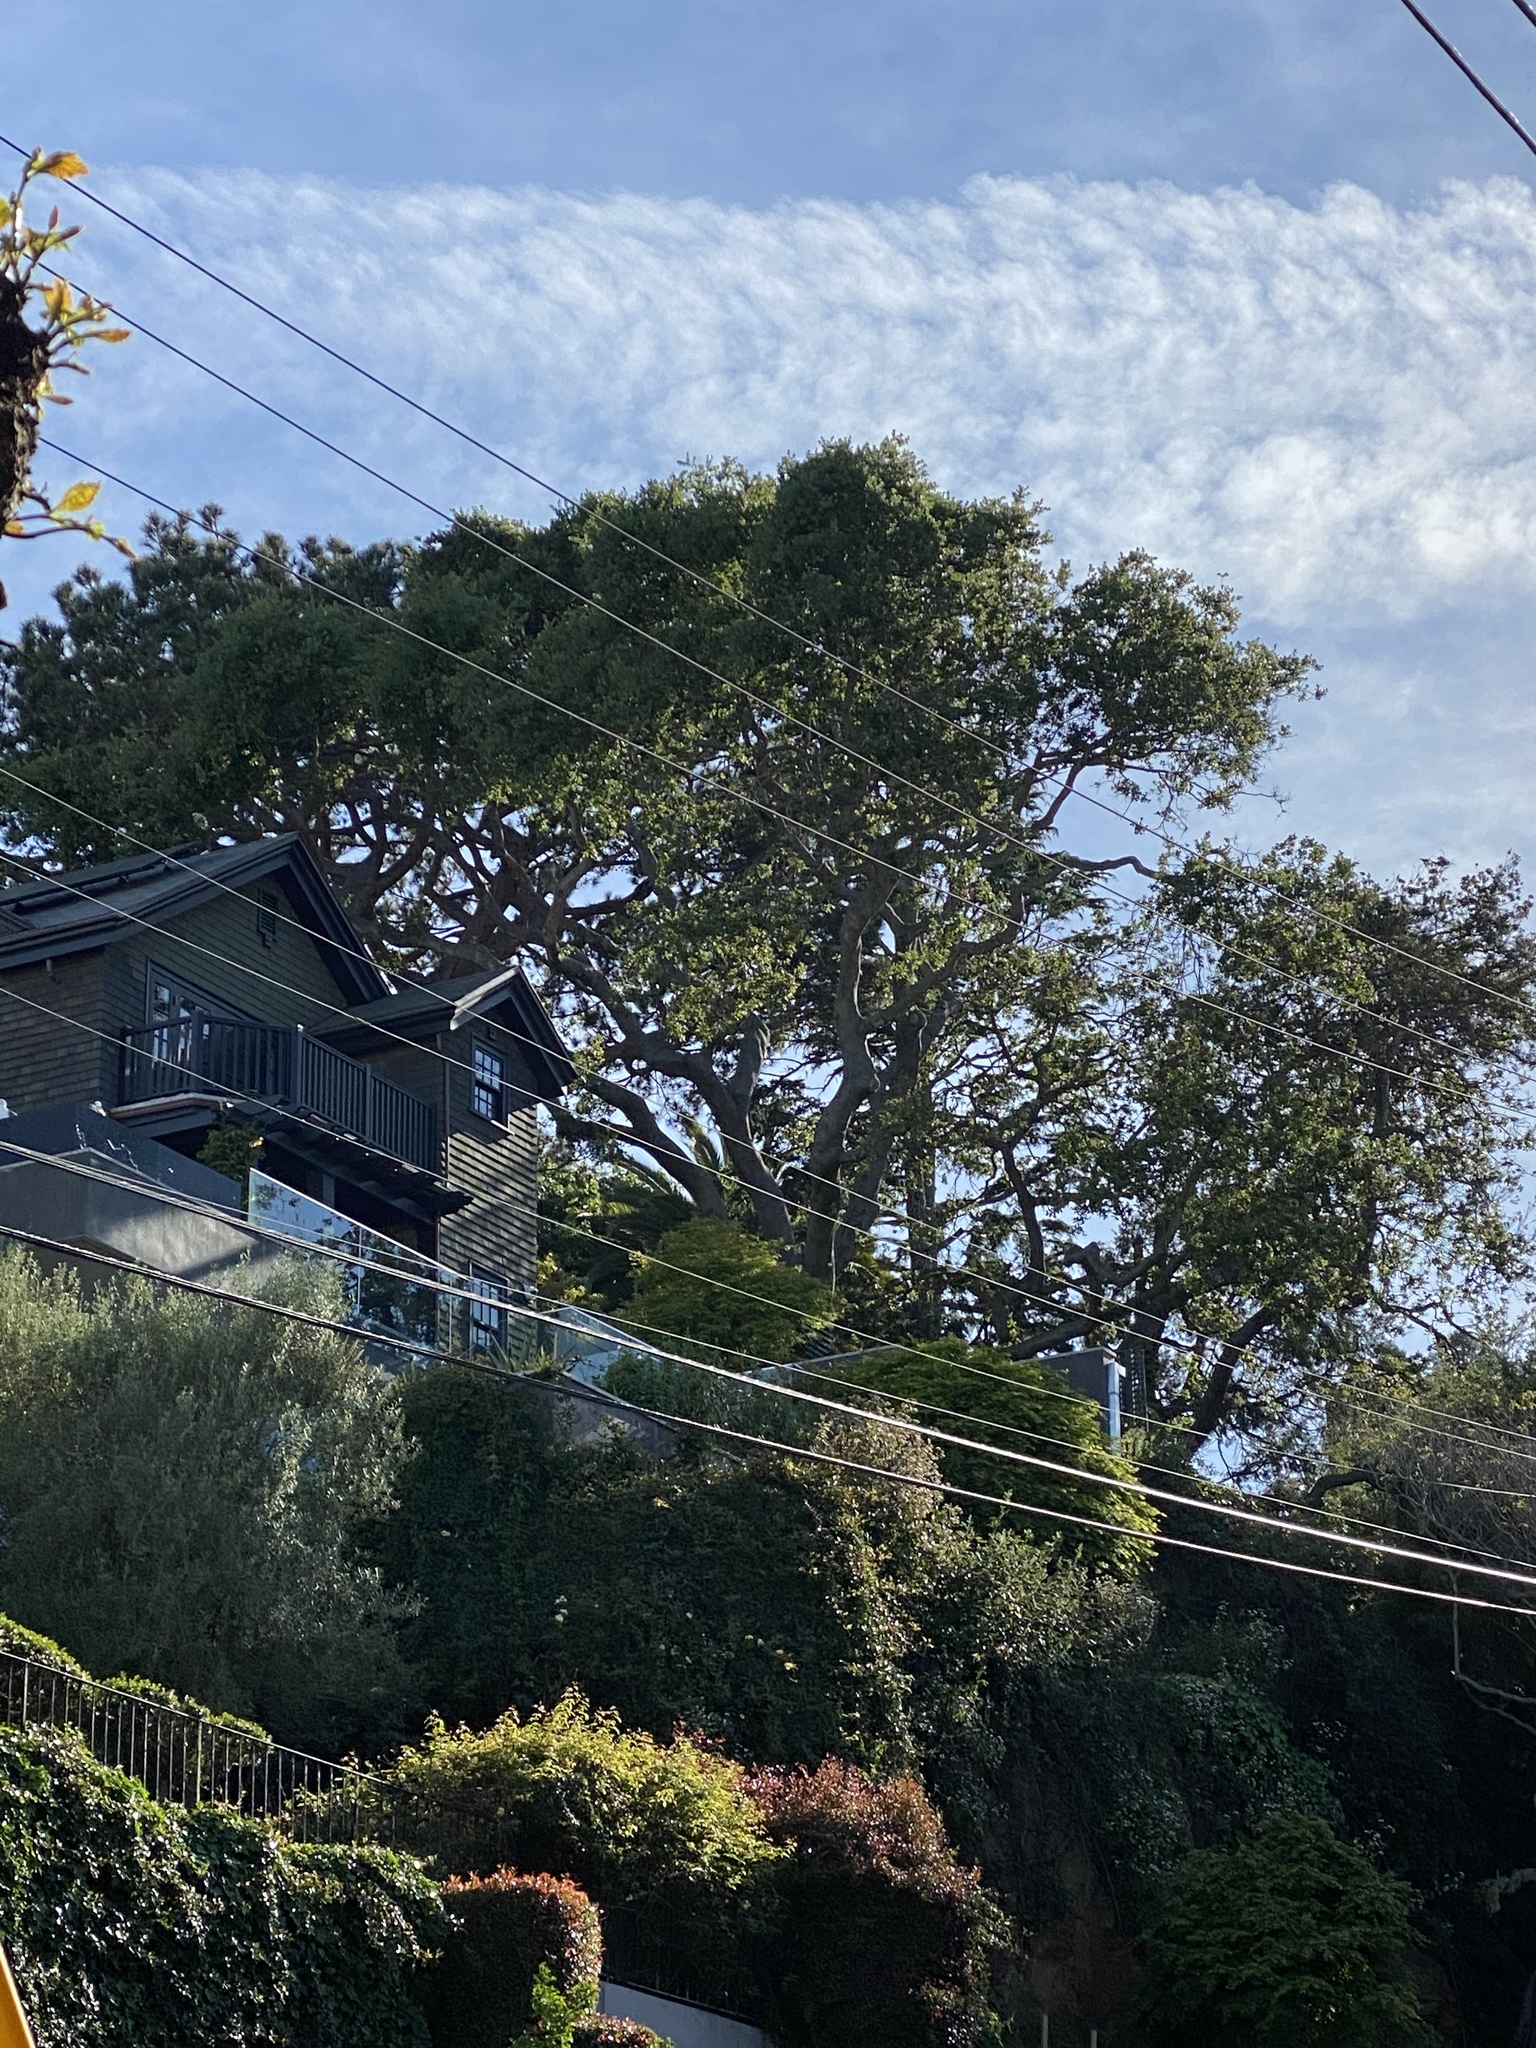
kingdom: Plantae
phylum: Tracheophyta
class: Magnoliopsida
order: Fagales
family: Fagaceae
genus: Quercus
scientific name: Quercus agrifolia
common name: California live oak
